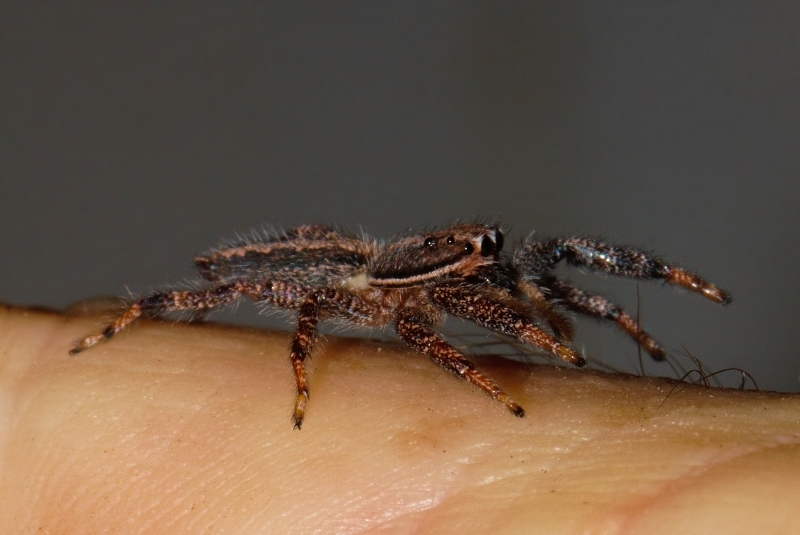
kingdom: Animalia
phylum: Arthropoda
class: Arachnida
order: Araneae
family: Salticidae
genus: Holcolaetis
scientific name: Holcolaetis zuluensis
